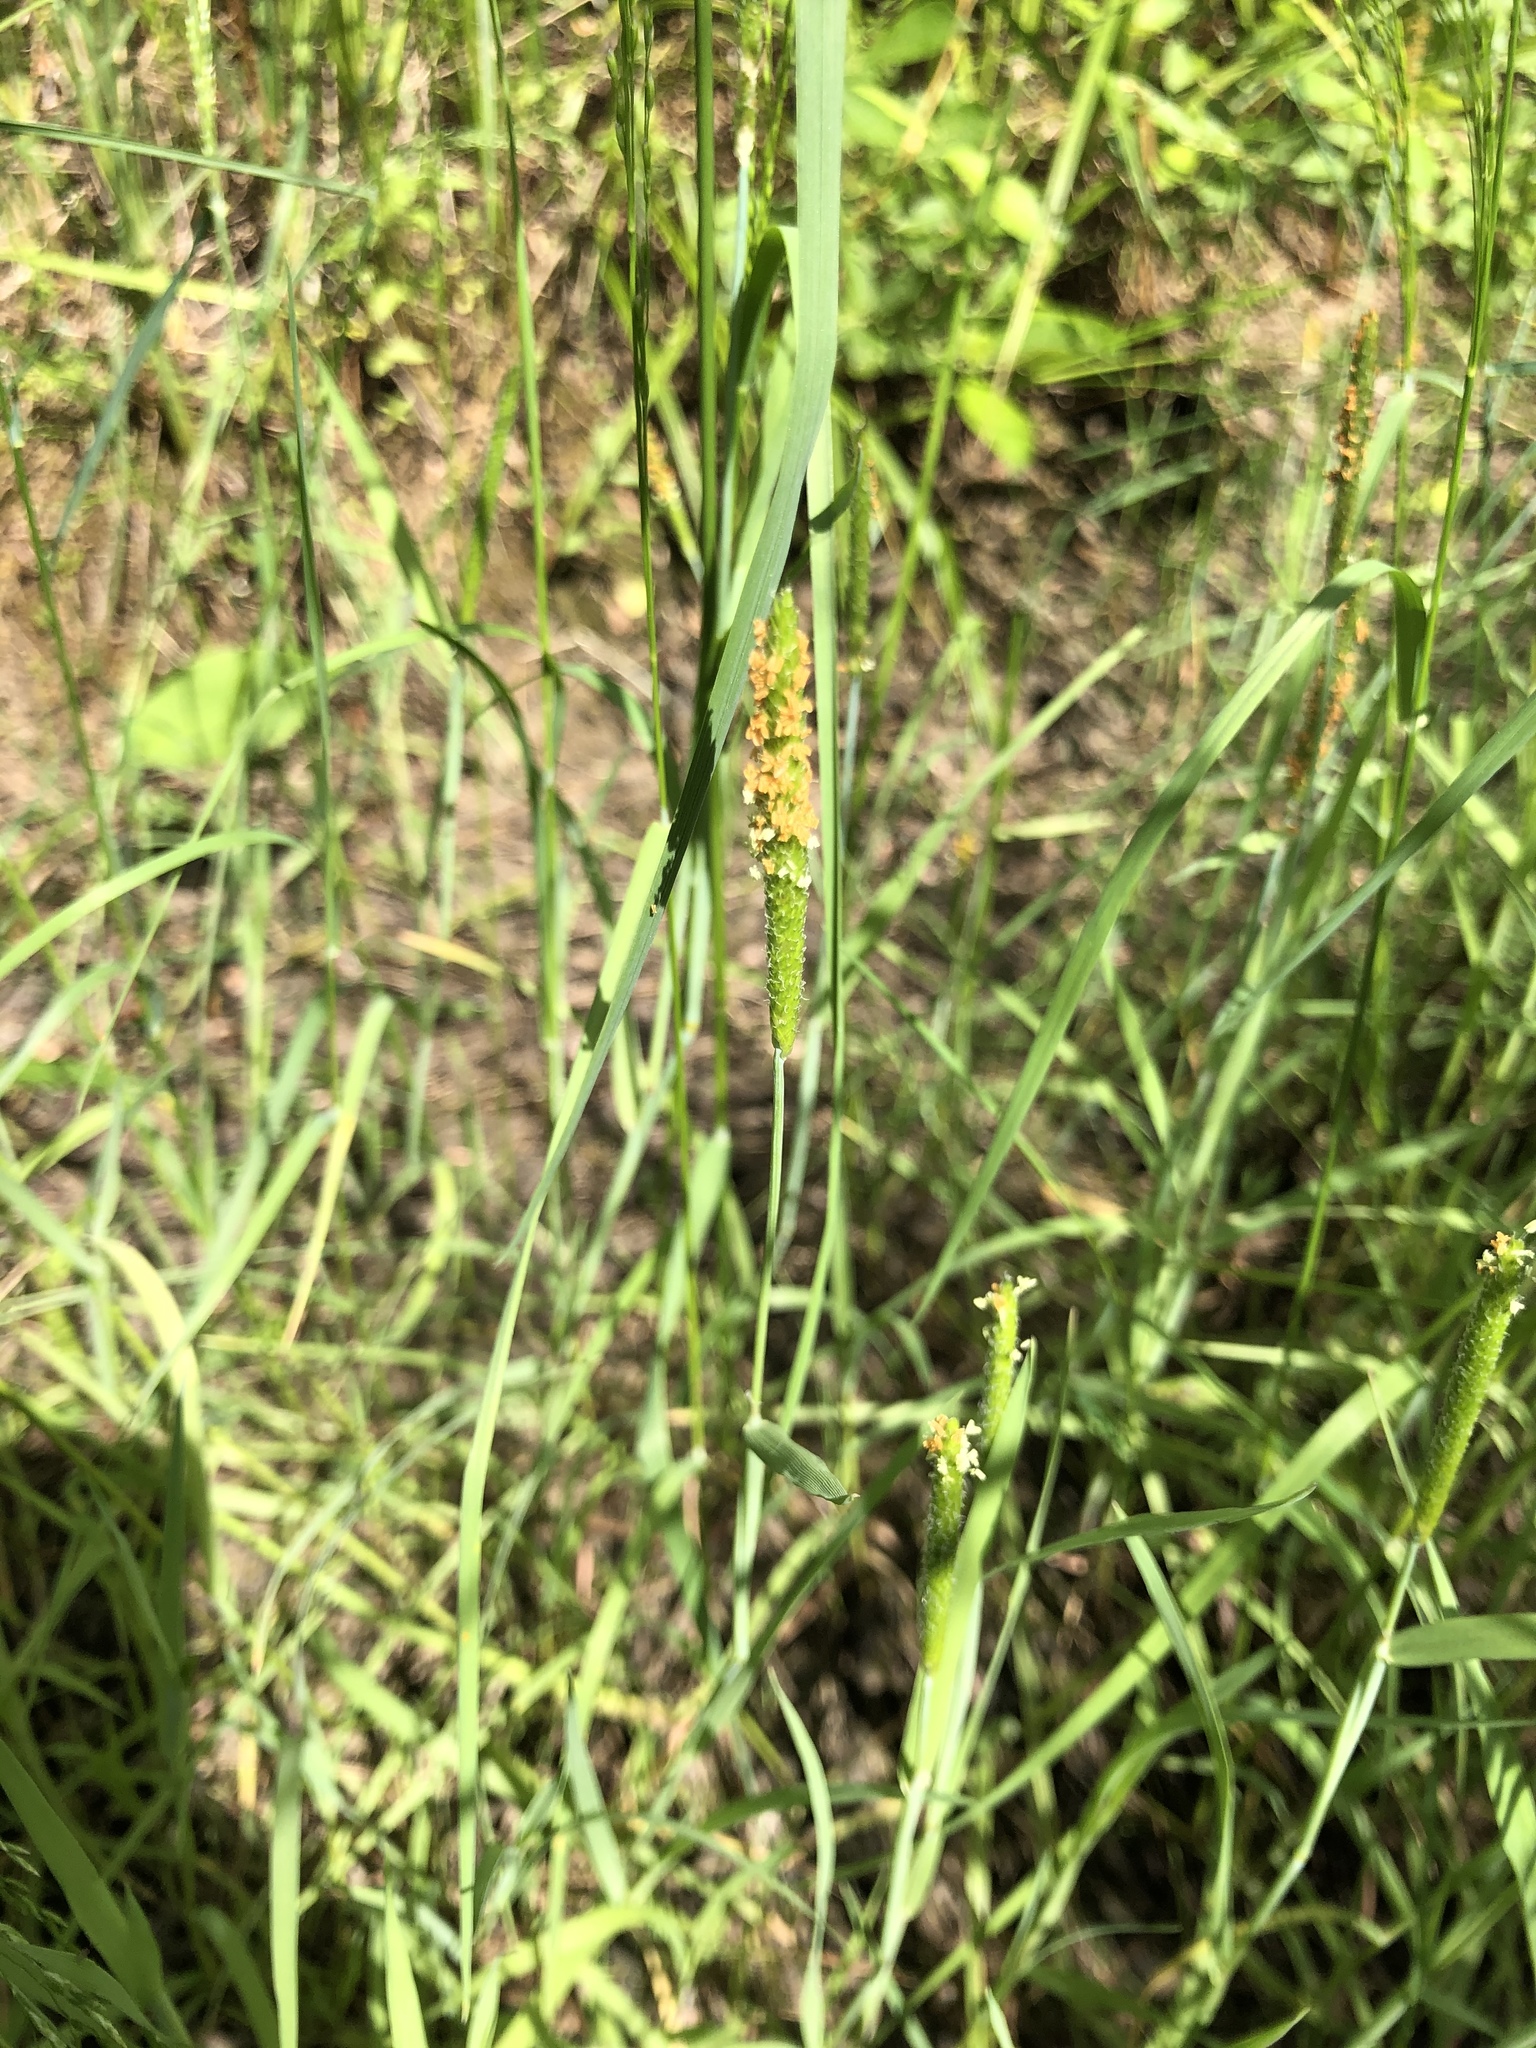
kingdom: Plantae
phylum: Tracheophyta
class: Liliopsida
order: Poales
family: Poaceae
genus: Alopecurus
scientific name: Alopecurus aequalis
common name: Orange foxtail
